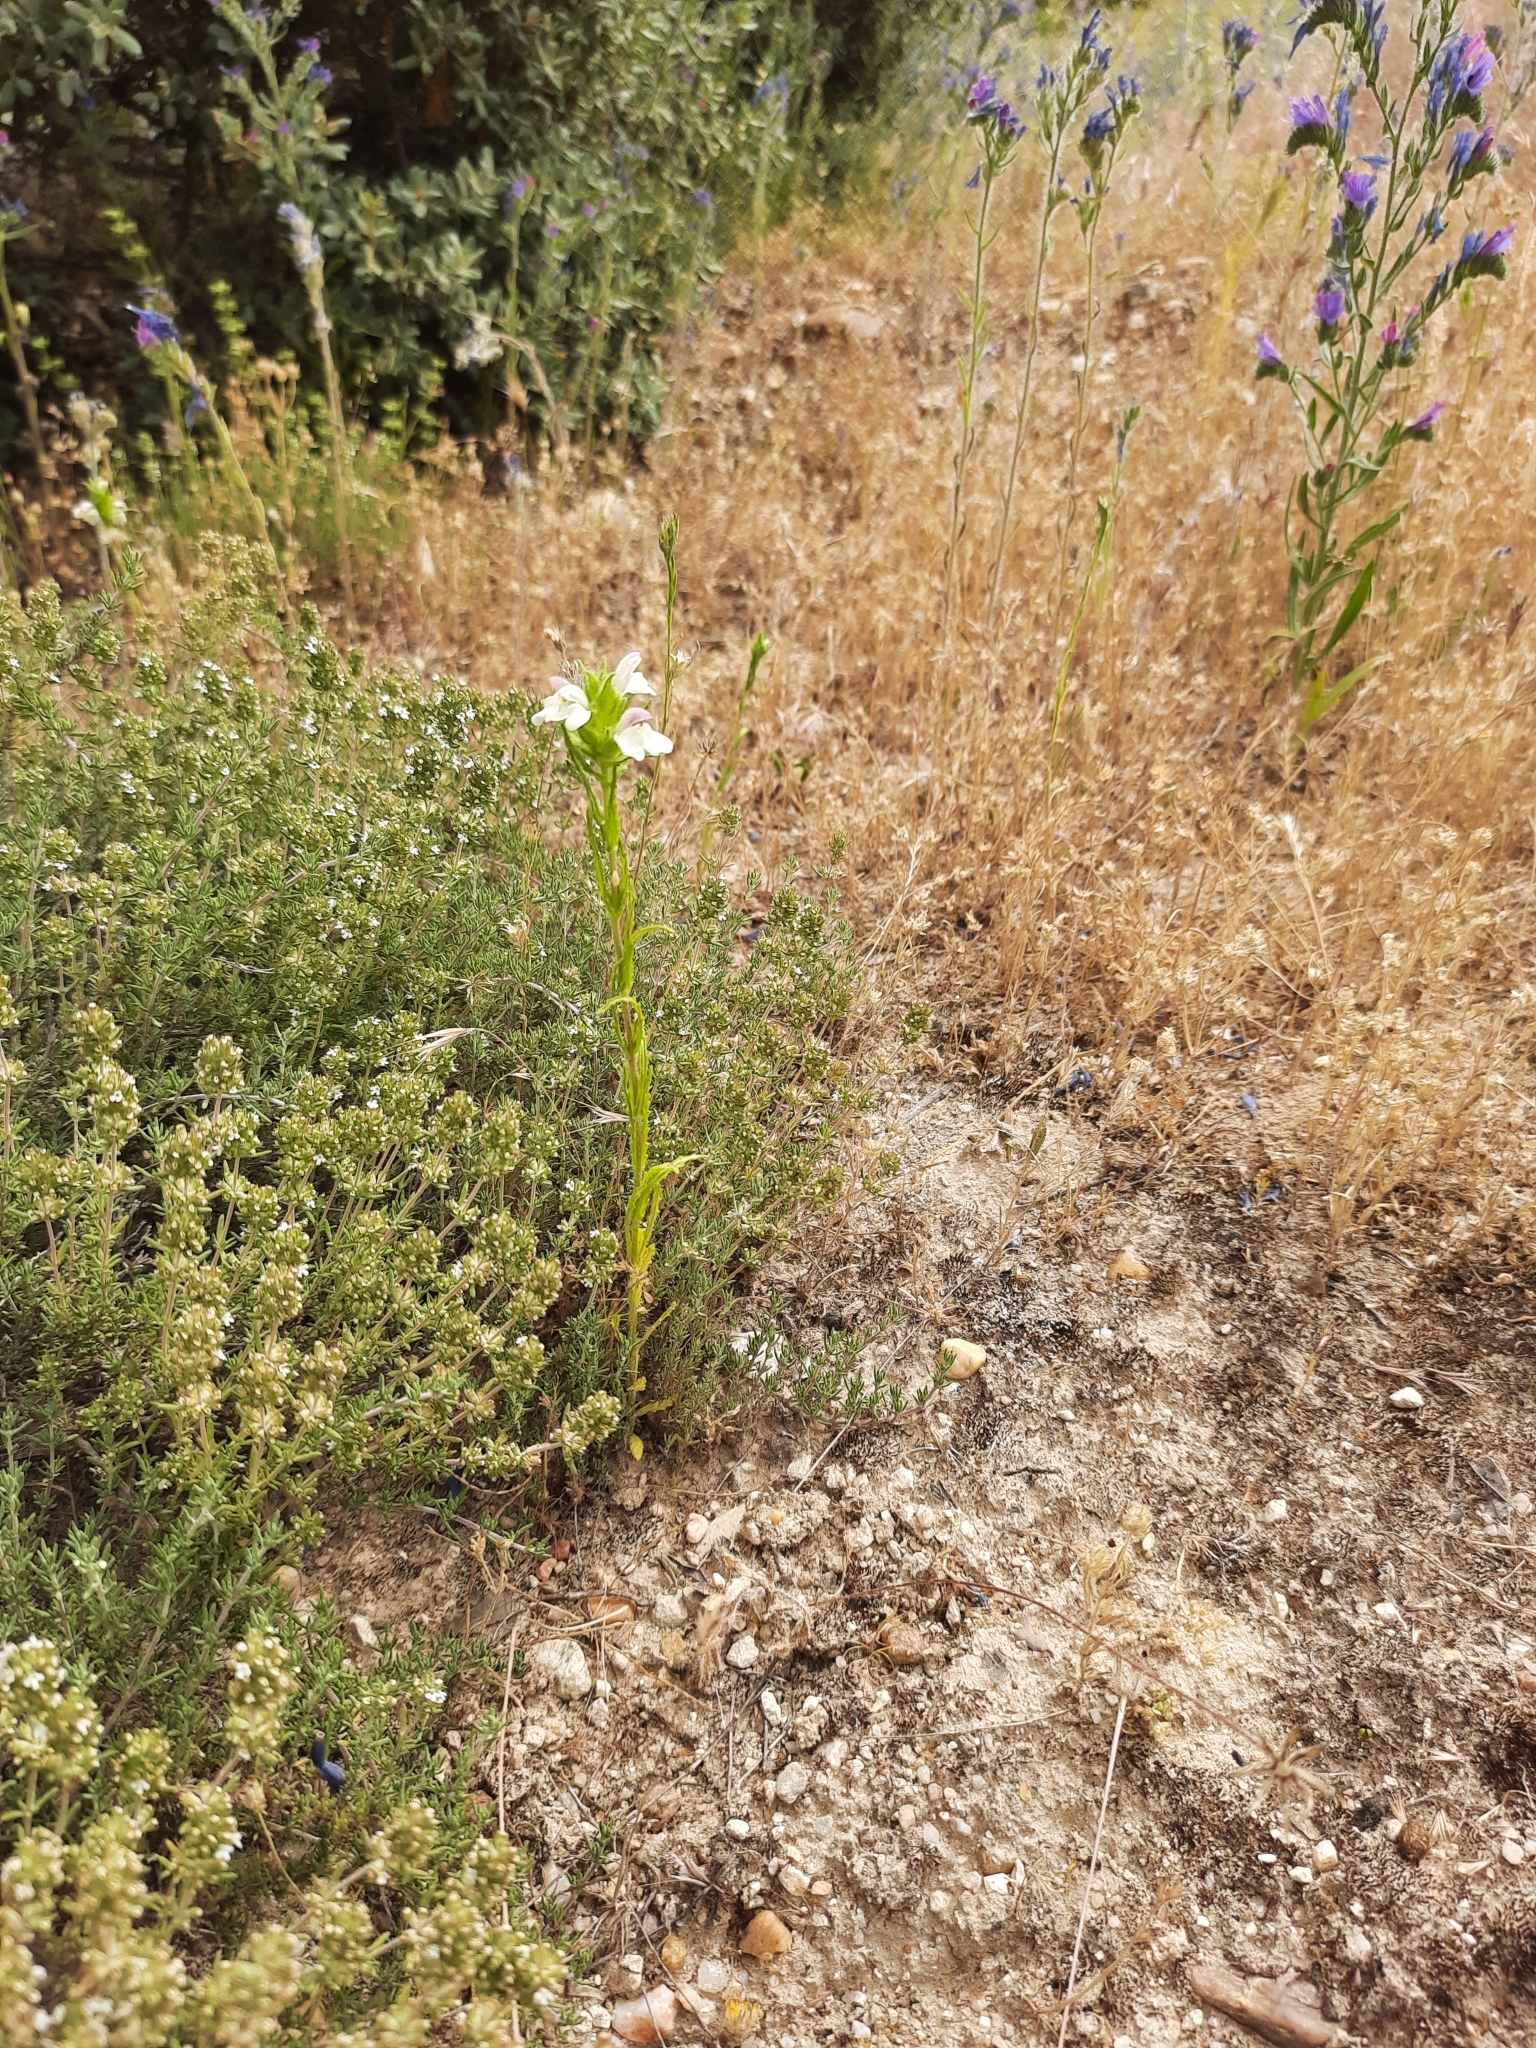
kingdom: Plantae
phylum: Tracheophyta
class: Magnoliopsida
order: Lamiales
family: Orobanchaceae
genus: Bellardia
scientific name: Bellardia trixago
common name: Mediterranean lineseed
